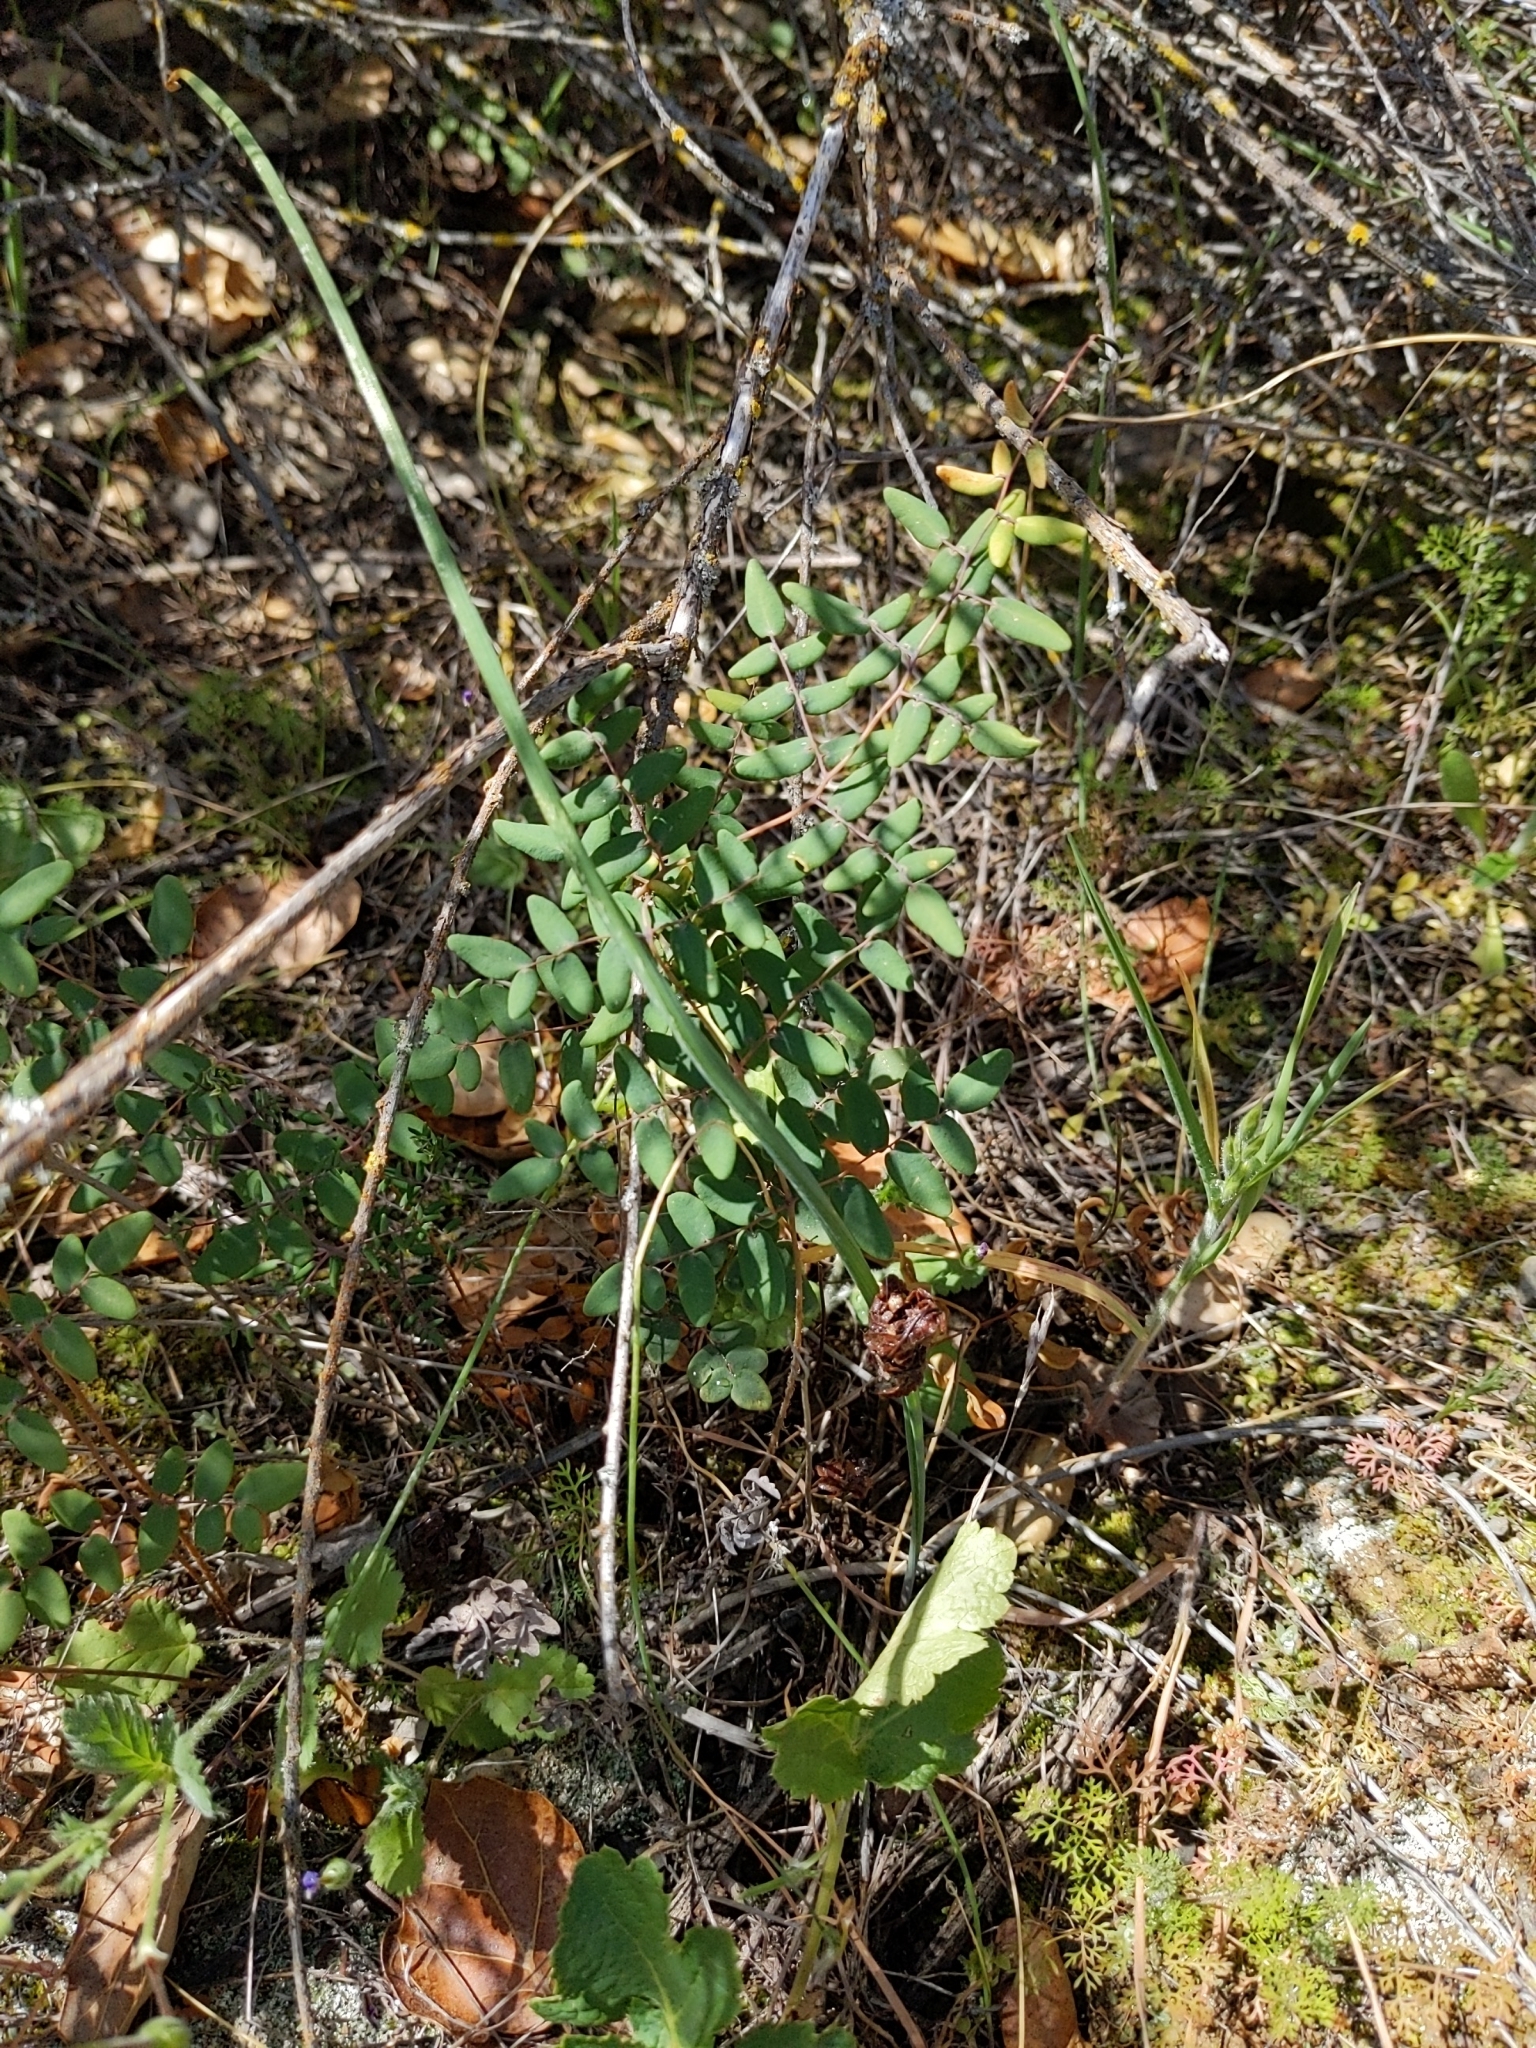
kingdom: Plantae
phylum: Tracheophyta
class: Polypodiopsida
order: Polypodiales
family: Pteridaceae
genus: Pellaea
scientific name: Pellaea andromedifolia
